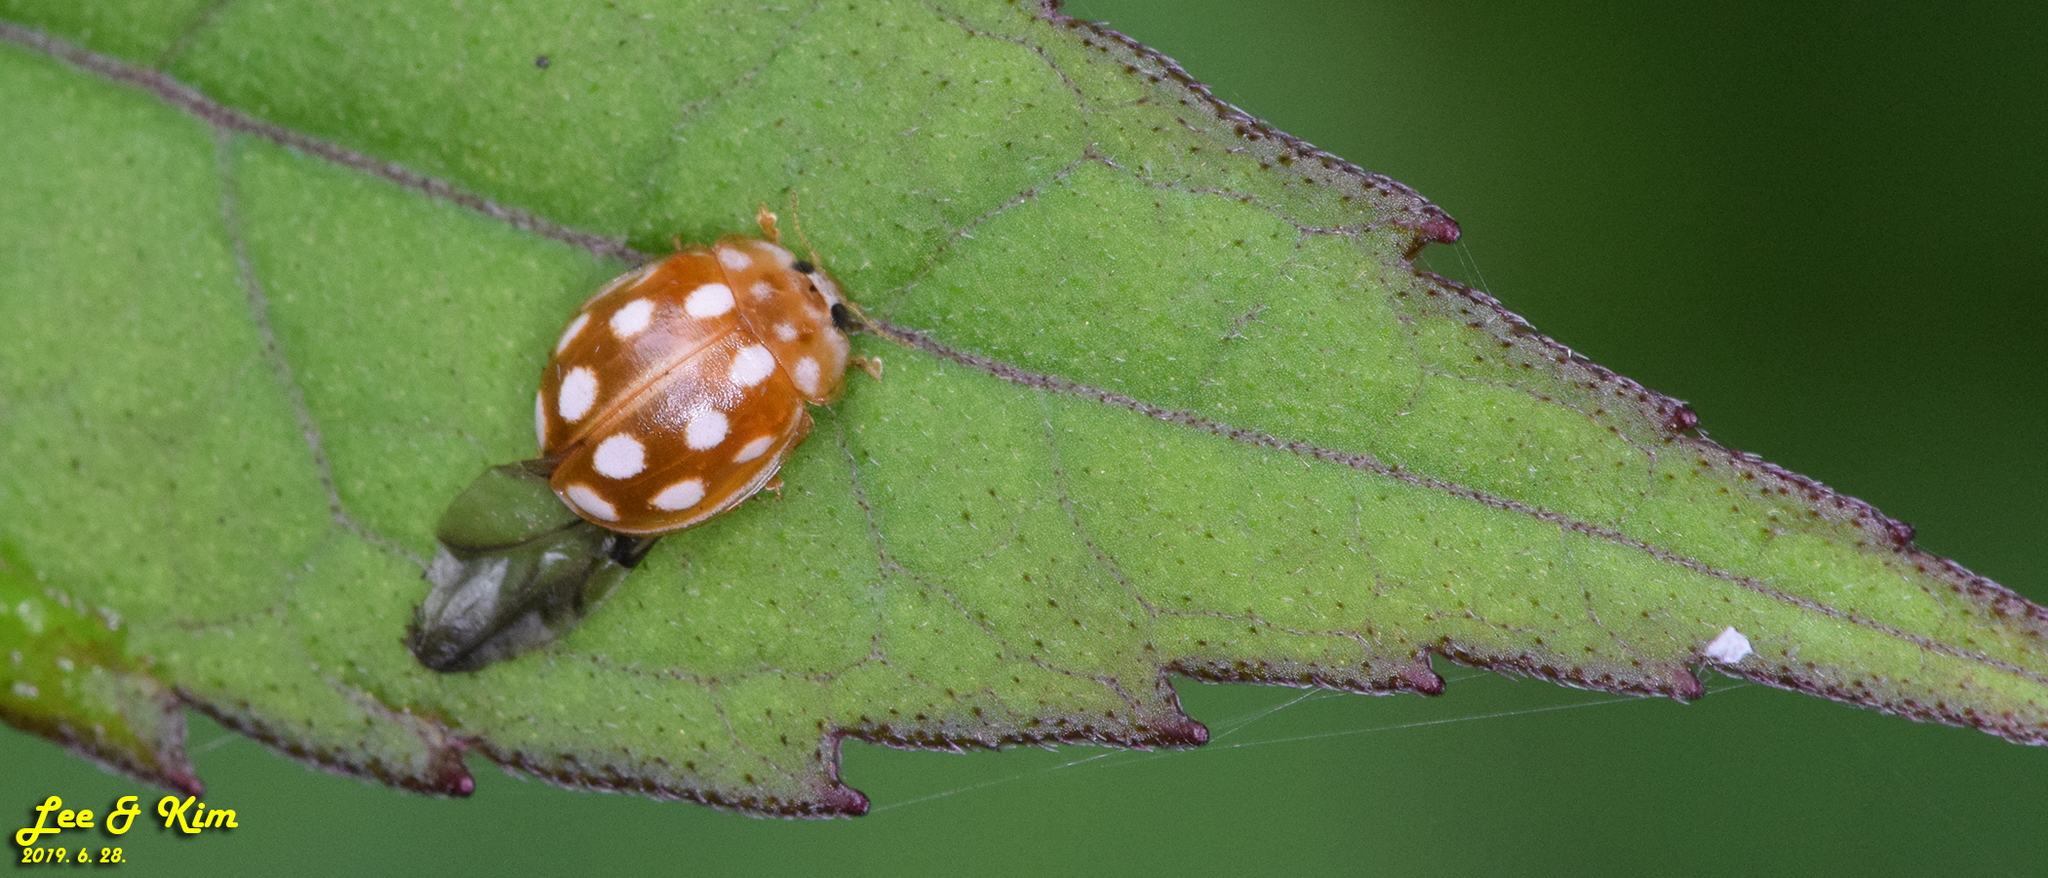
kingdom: Animalia
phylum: Arthropoda
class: Insecta
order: Coleoptera
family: Coccinellidae
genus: Calvia
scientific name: Calvia muiri
